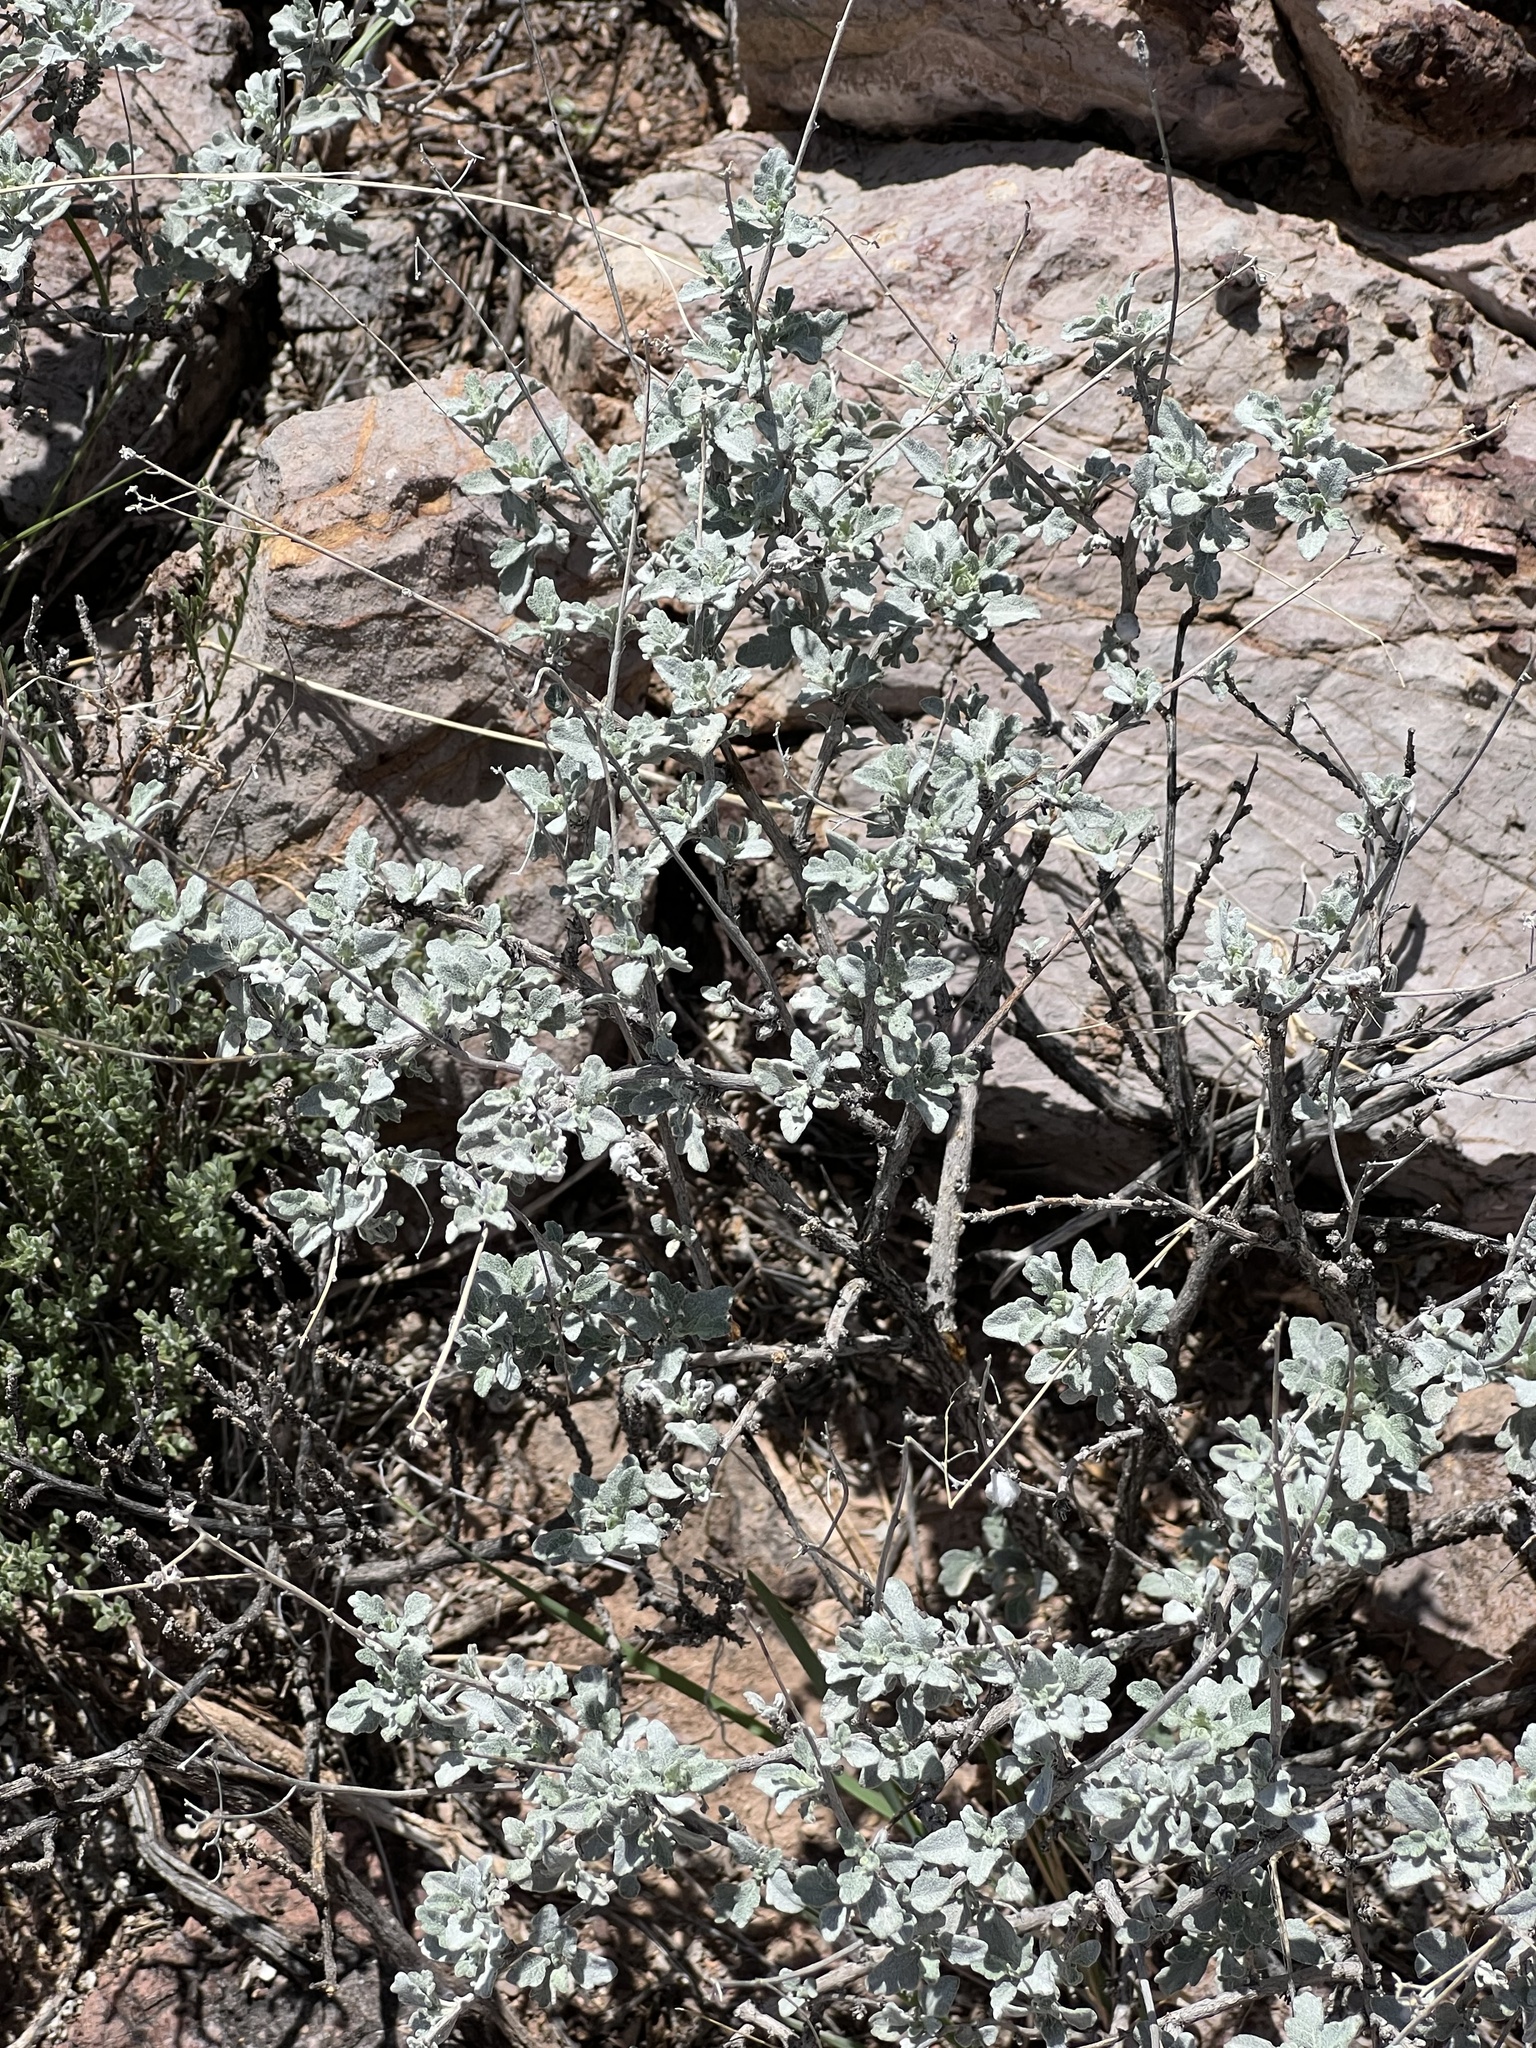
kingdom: Plantae
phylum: Tracheophyta
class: Magnoliopsida
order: Asterales
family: Asteraceae
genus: Parthenium
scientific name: Parthenium incanum
